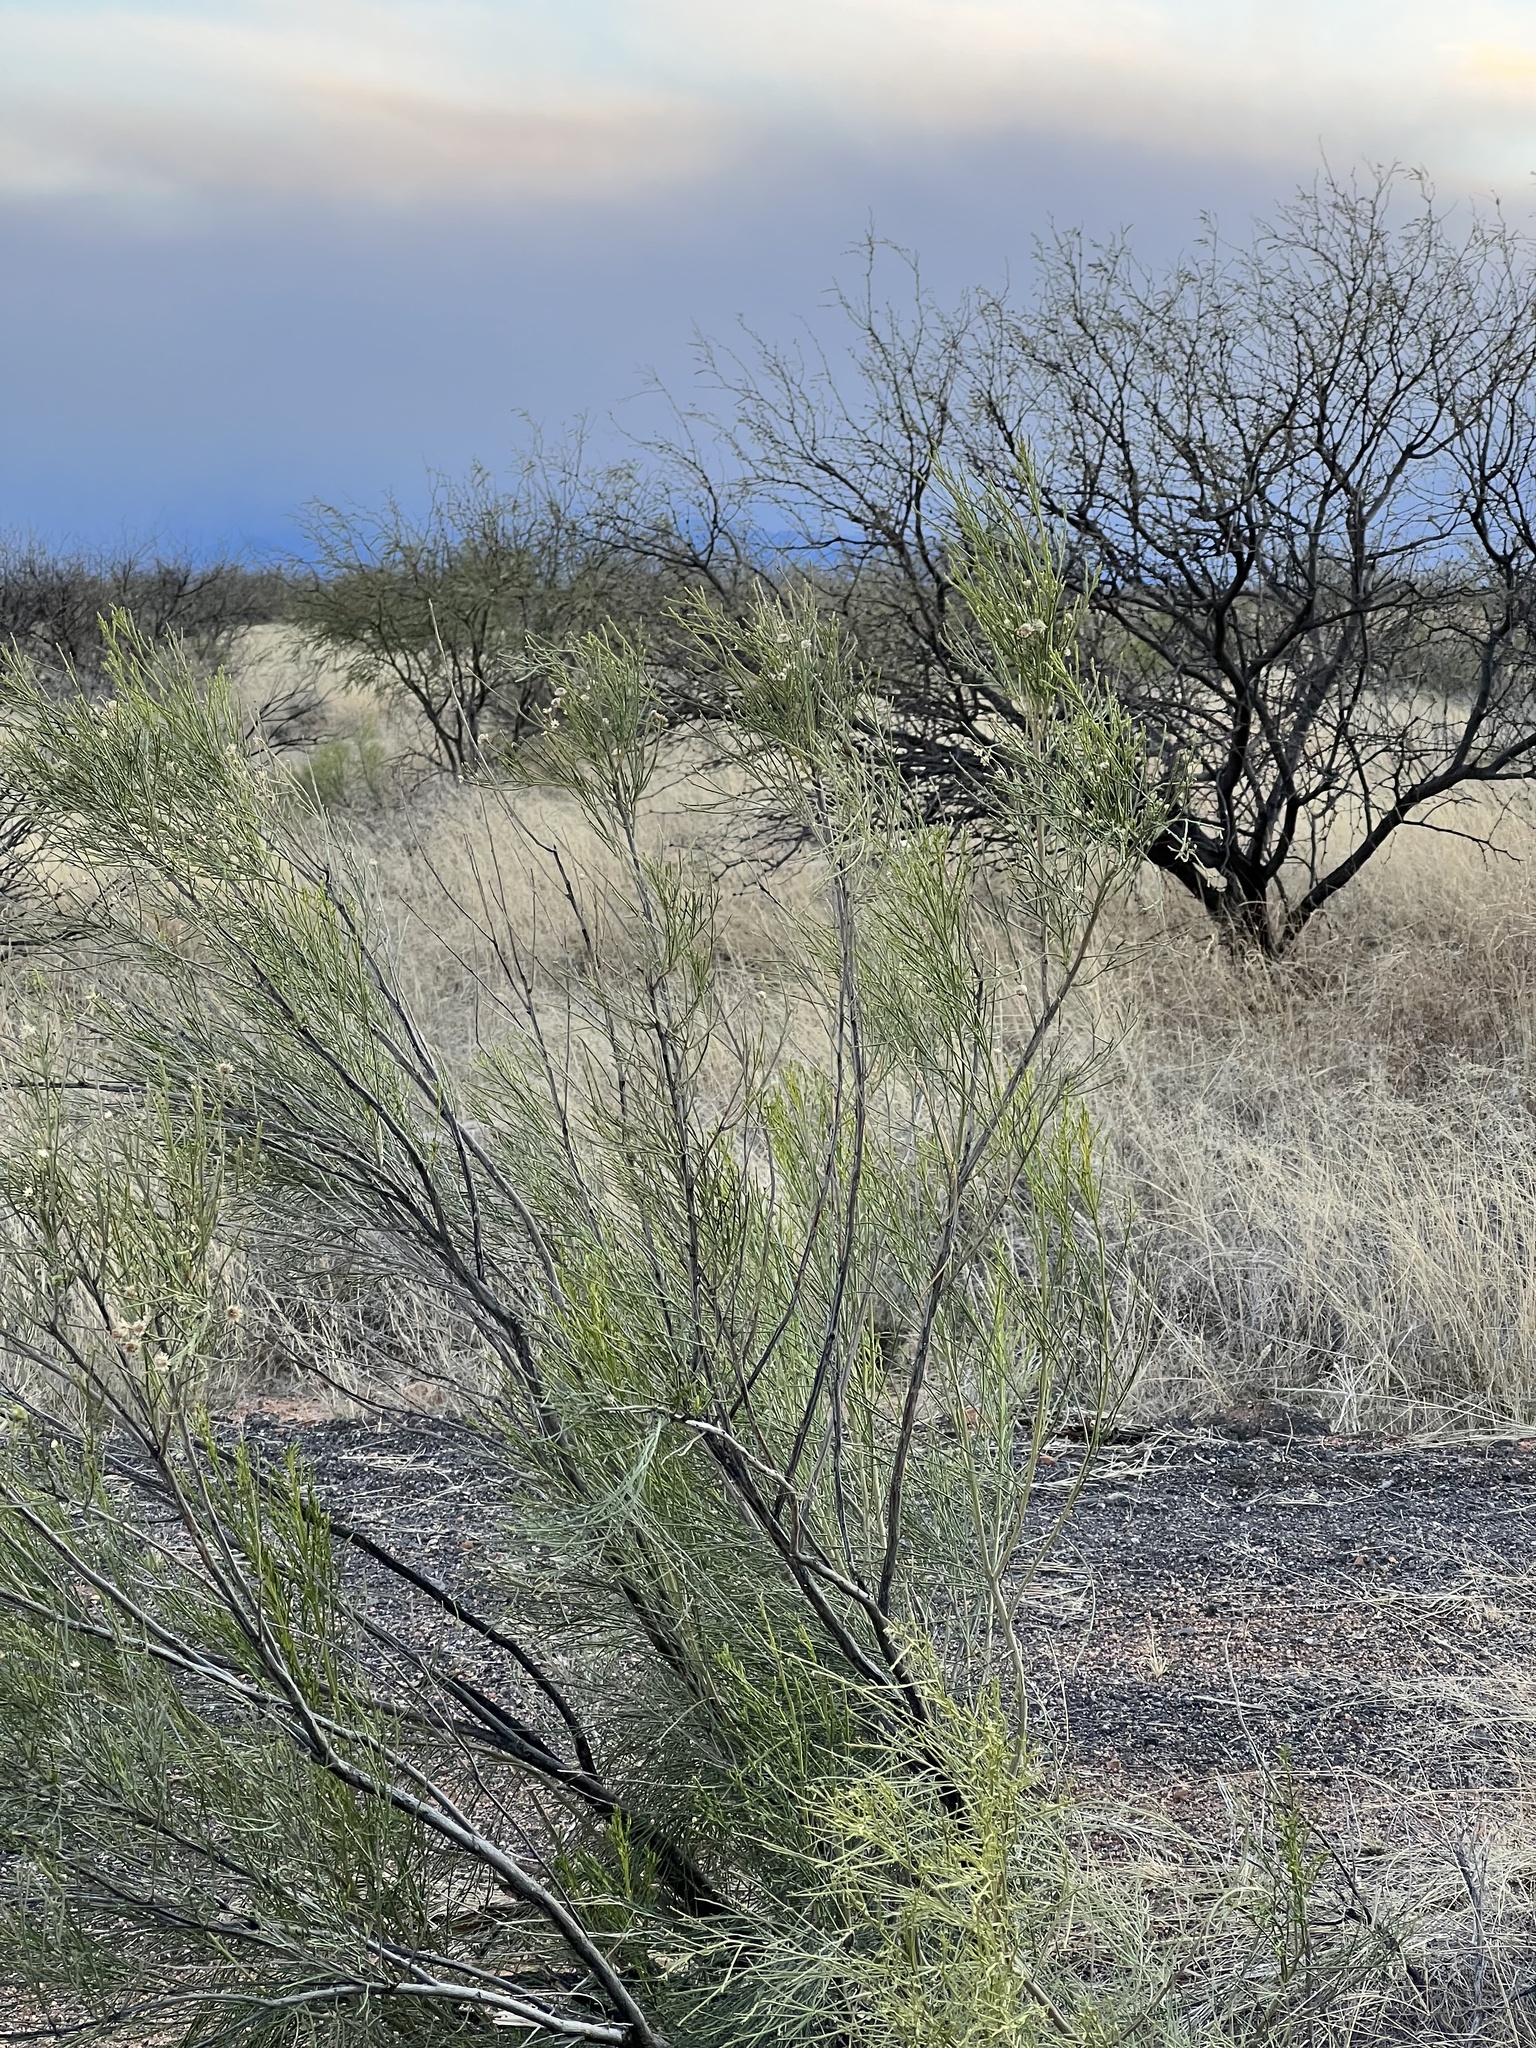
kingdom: Plantae
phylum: Tracheophyta
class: Magnoliopsida
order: Asterales
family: Asteraceae
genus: Baccharis
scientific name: Baccharis sarothroides
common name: Desert-broom
